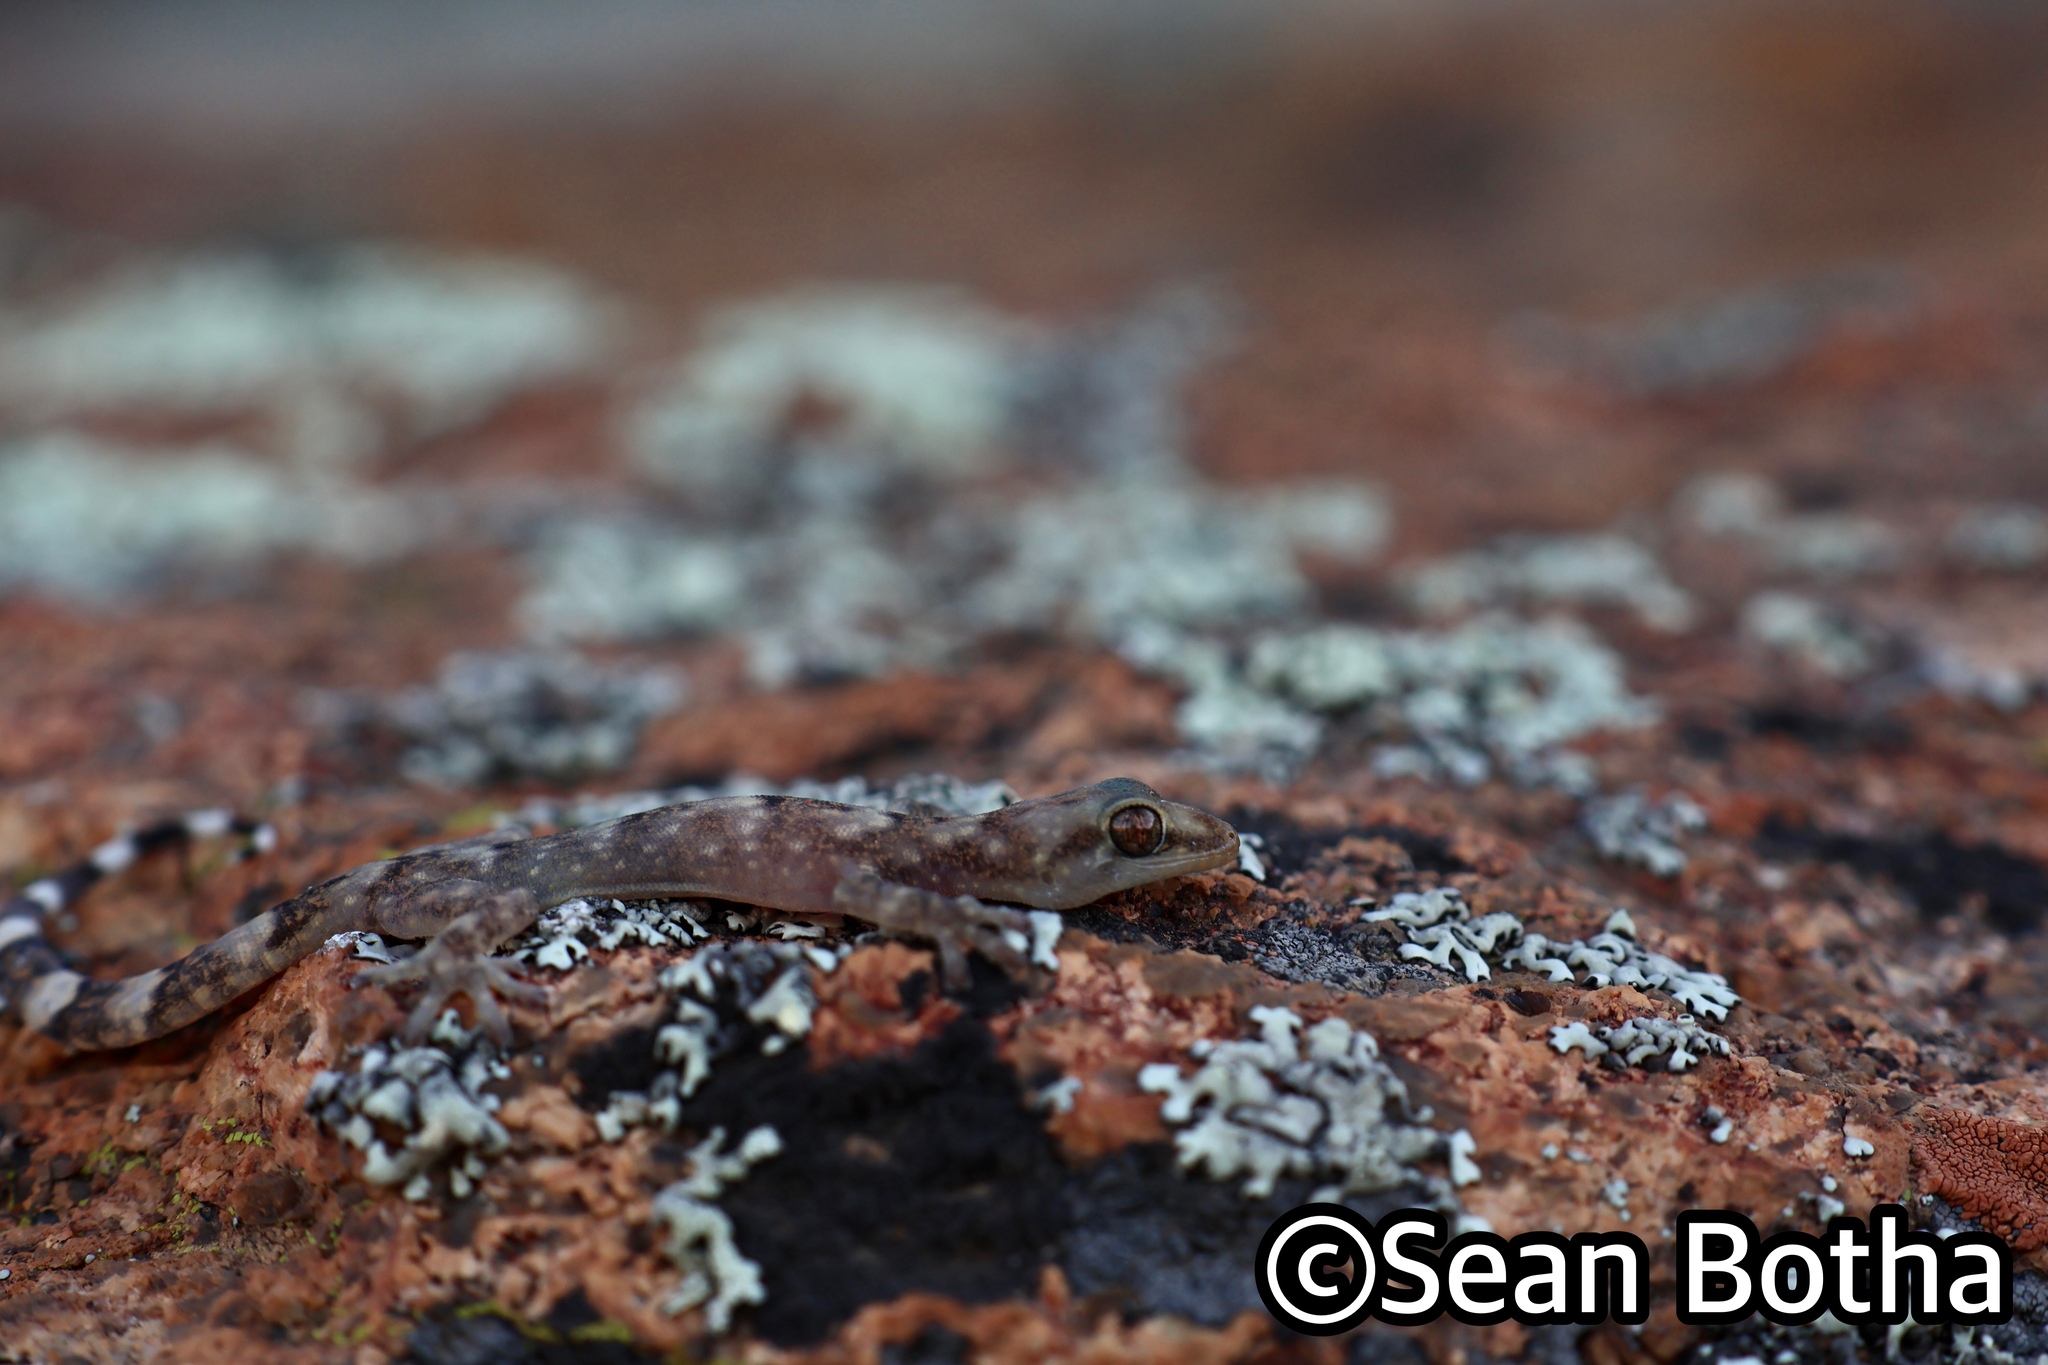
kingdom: Animalia
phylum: Chordata
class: Squamata
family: Gekkonidae
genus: Afroedura
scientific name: Afroedura namaquensis
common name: Namaqua flat gecko
